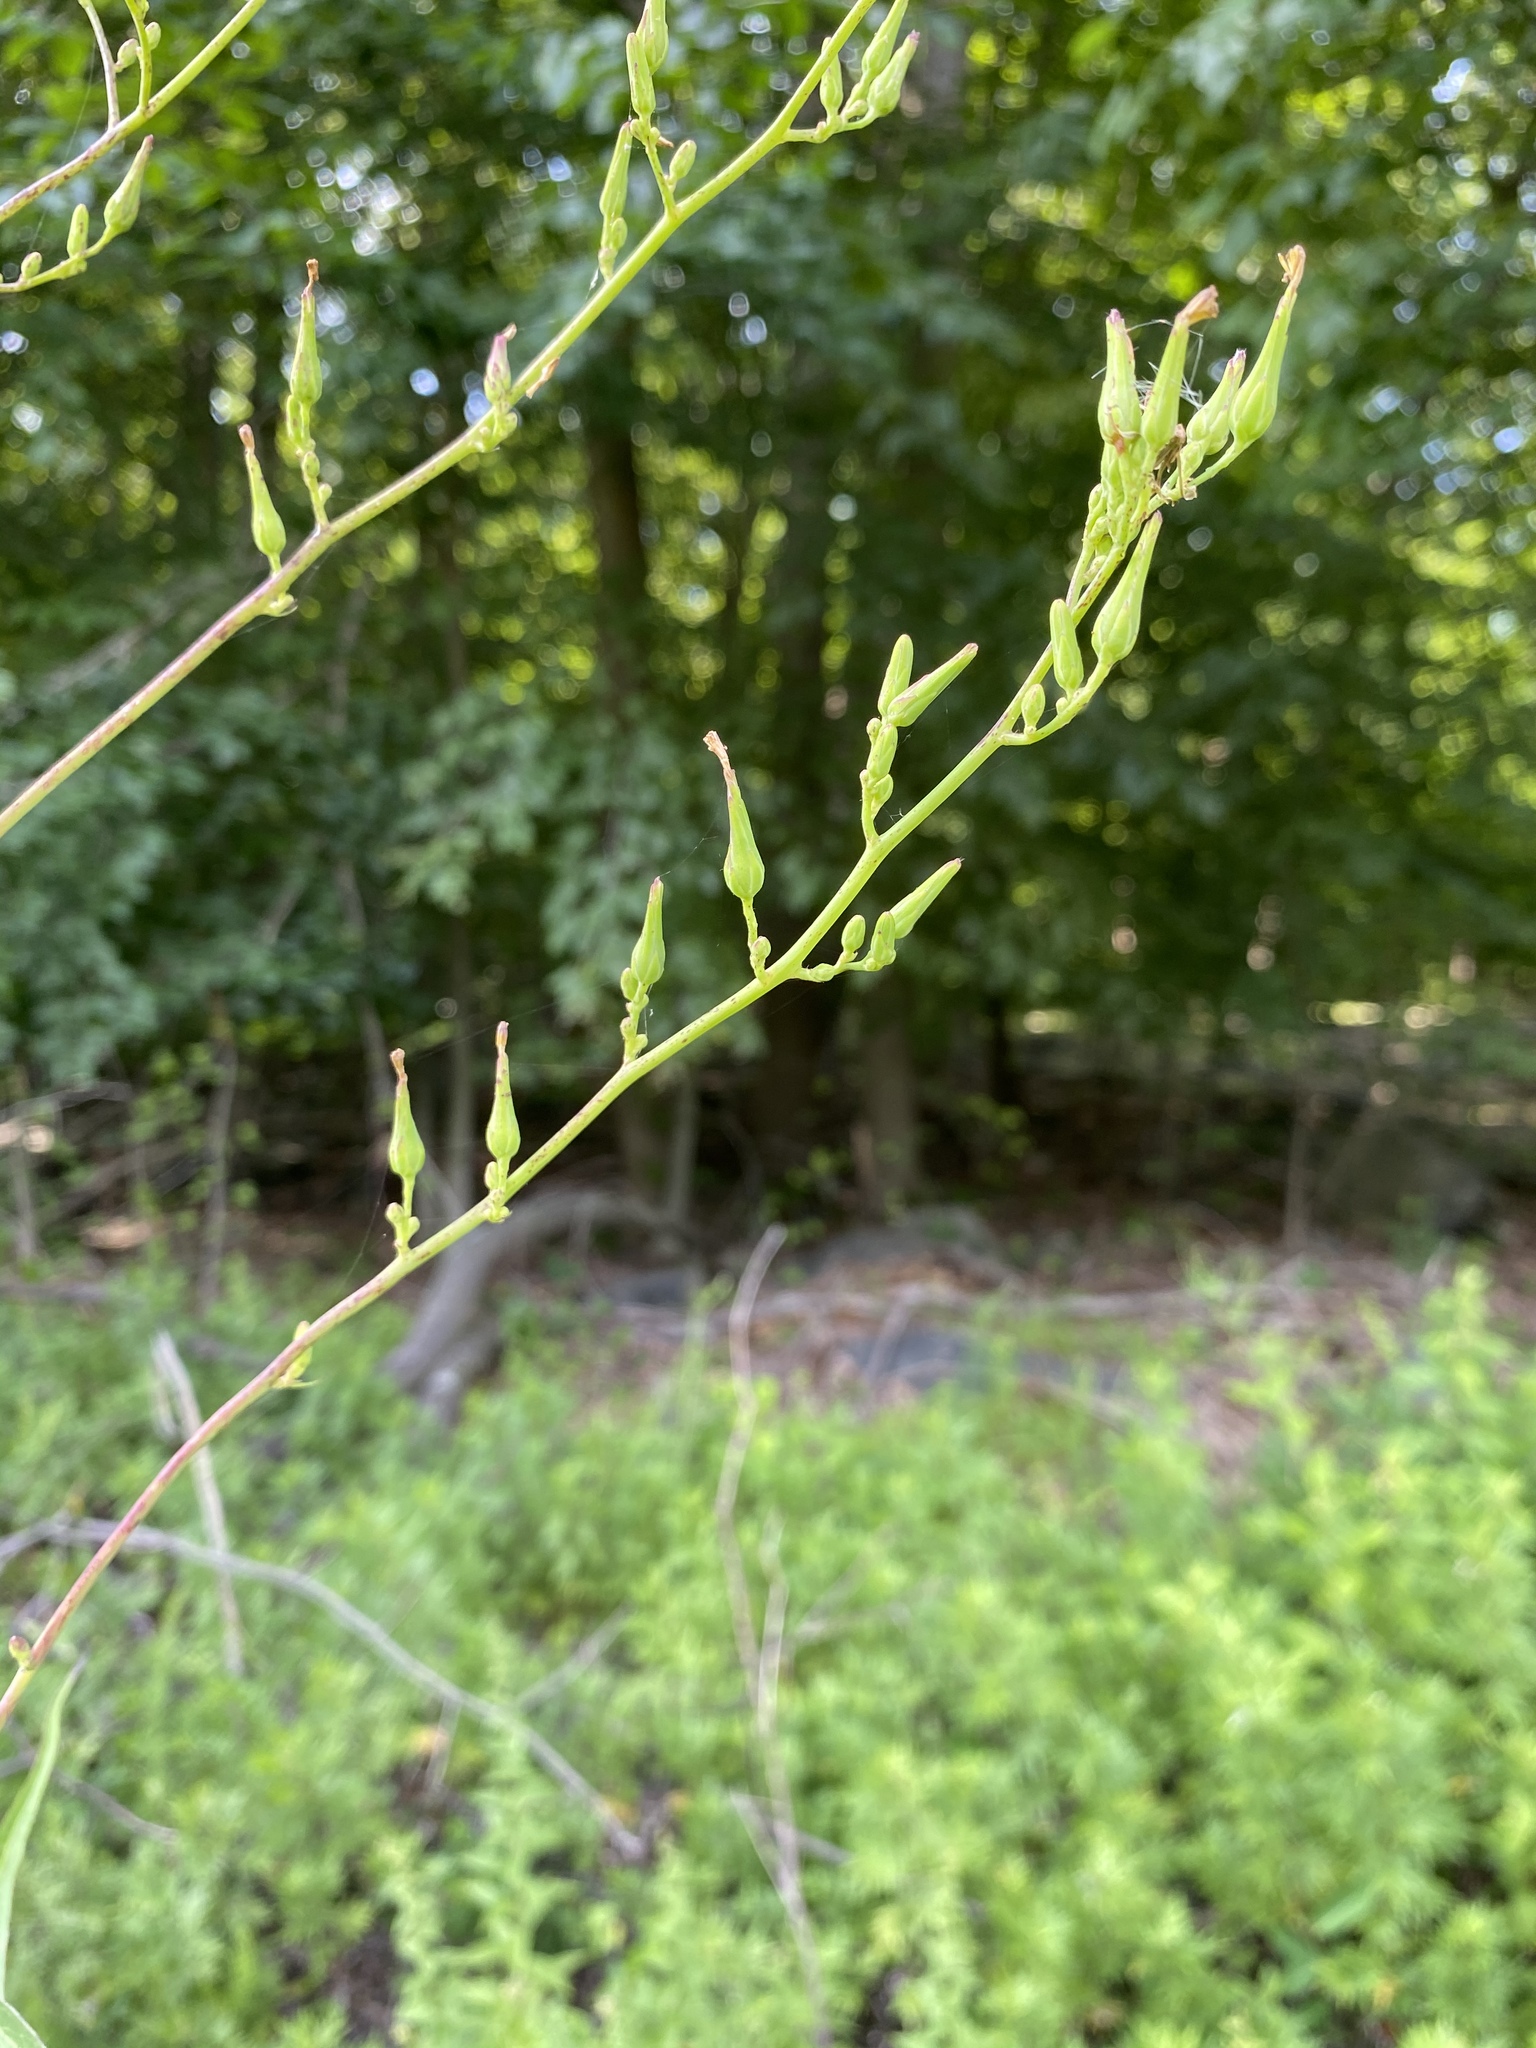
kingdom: Plantae
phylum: Tracheophyta
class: Magnoliopsida
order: Asterales
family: Asteraceae
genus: Lactuca
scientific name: Lactuca canadensis
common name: Canada lettuce
